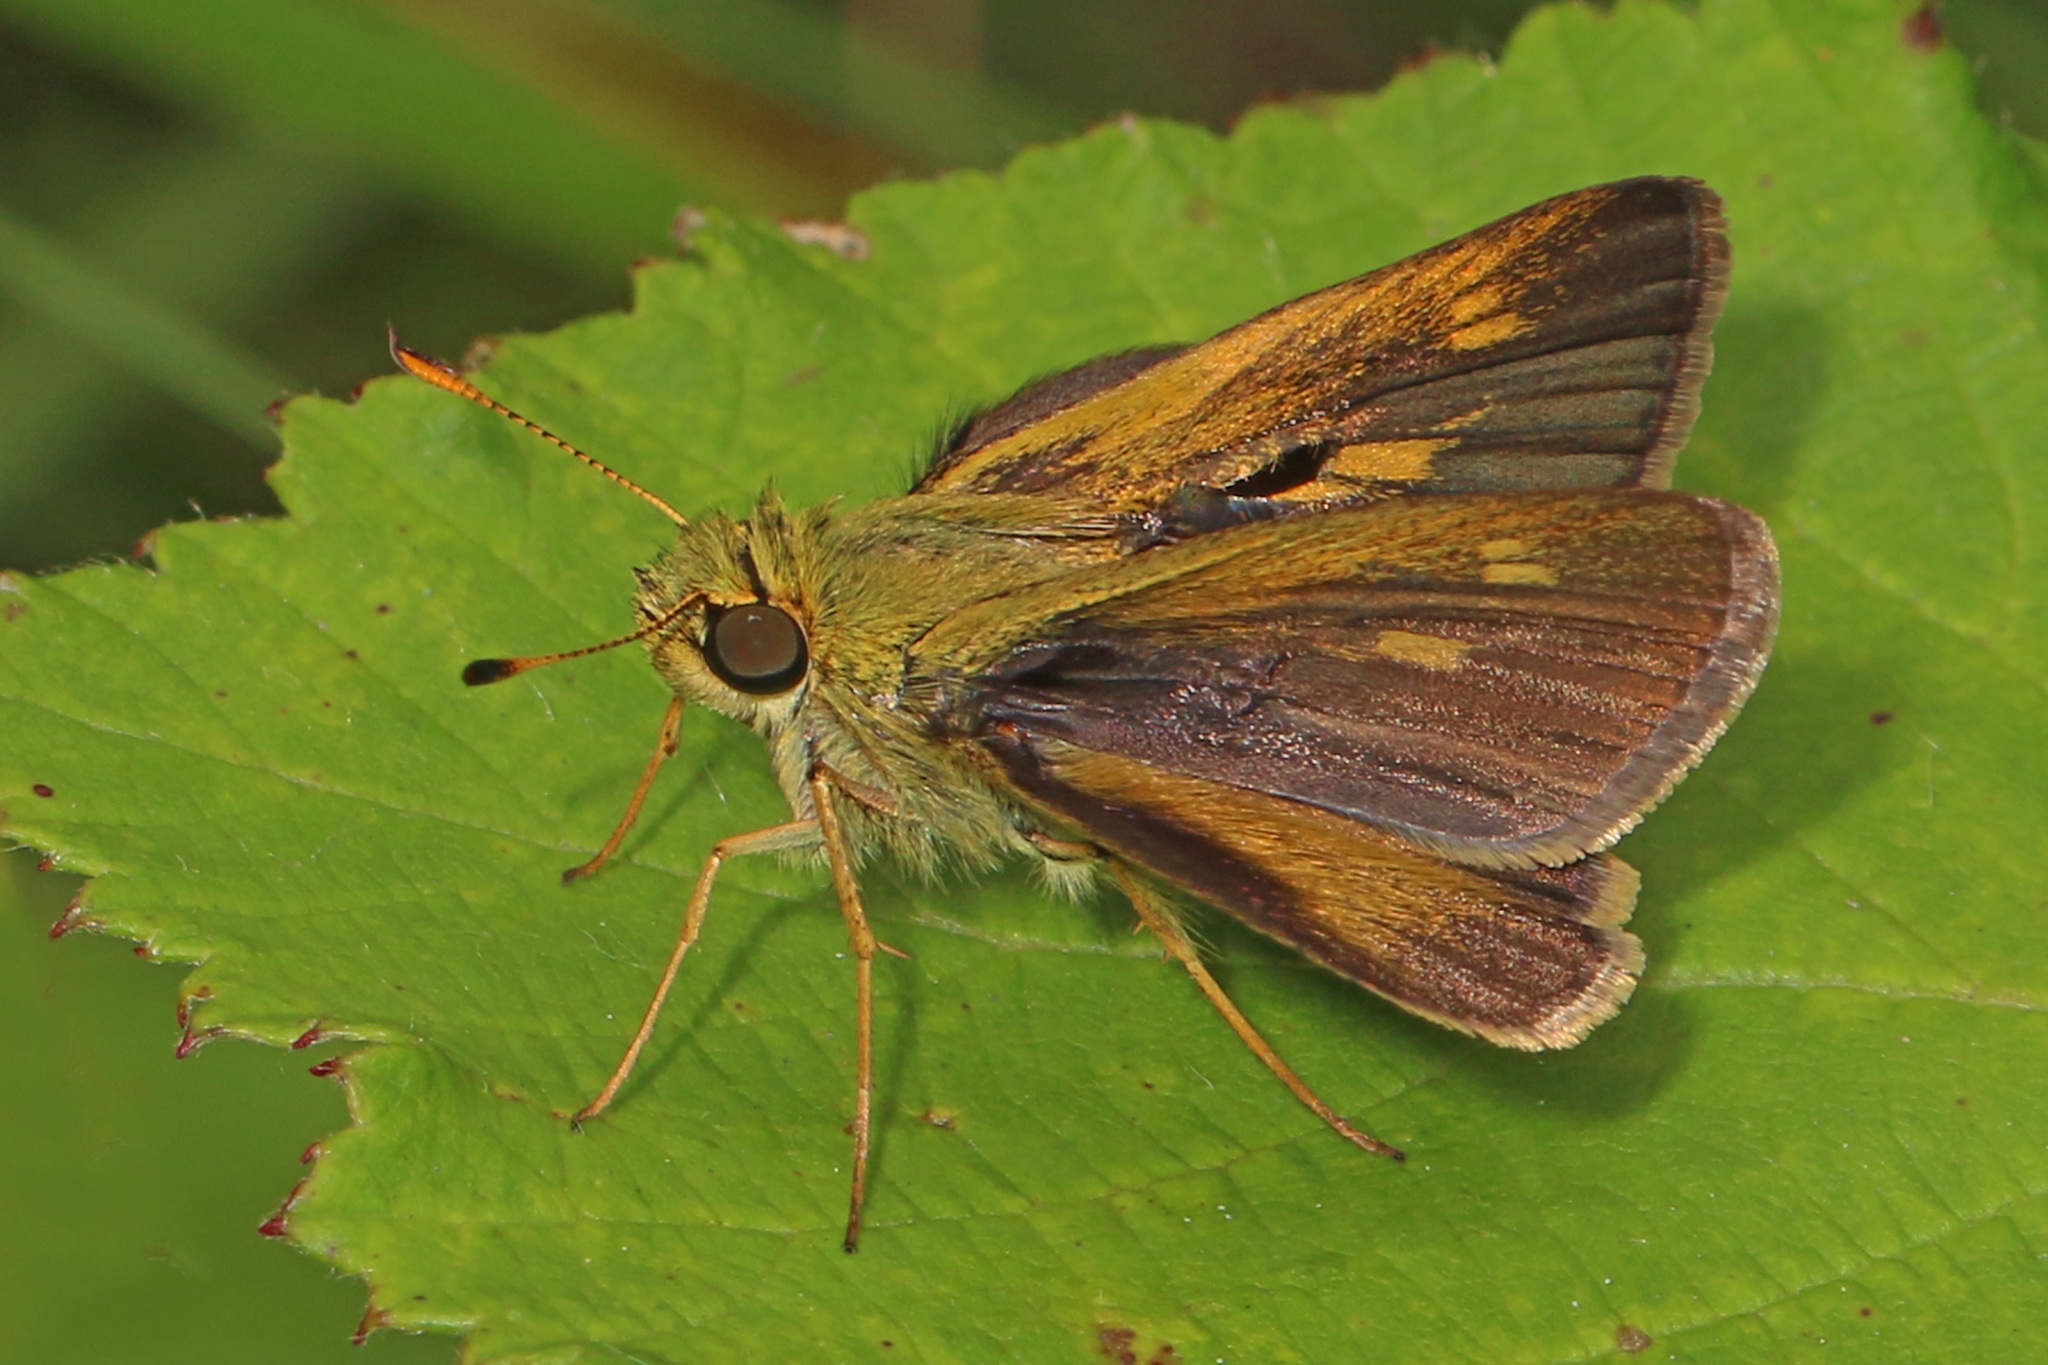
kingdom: Animalia
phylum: Arthropoda
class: Insecta
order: Lepidoptera
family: Hesperiidae
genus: Polites
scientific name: Polites otho
